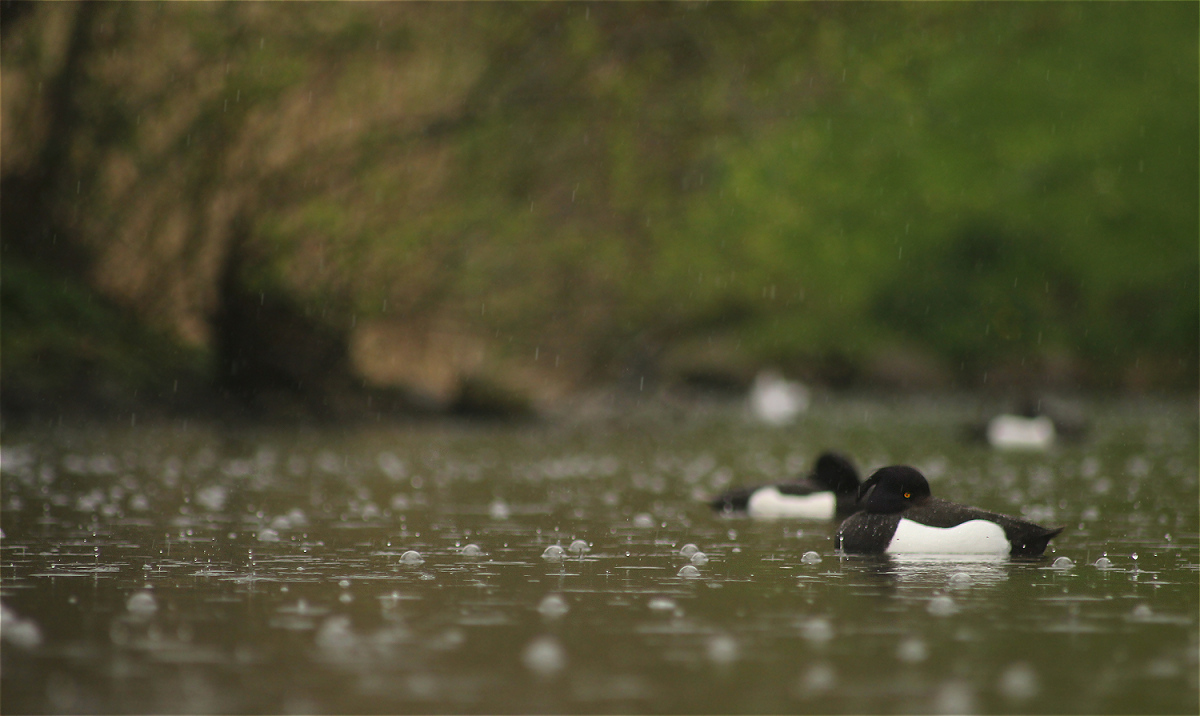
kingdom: Animalia
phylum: Chordata
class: Aves
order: Anseriformes
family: Anatidae
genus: Aythya
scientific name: Aythya fuligula
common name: Tufted duck
